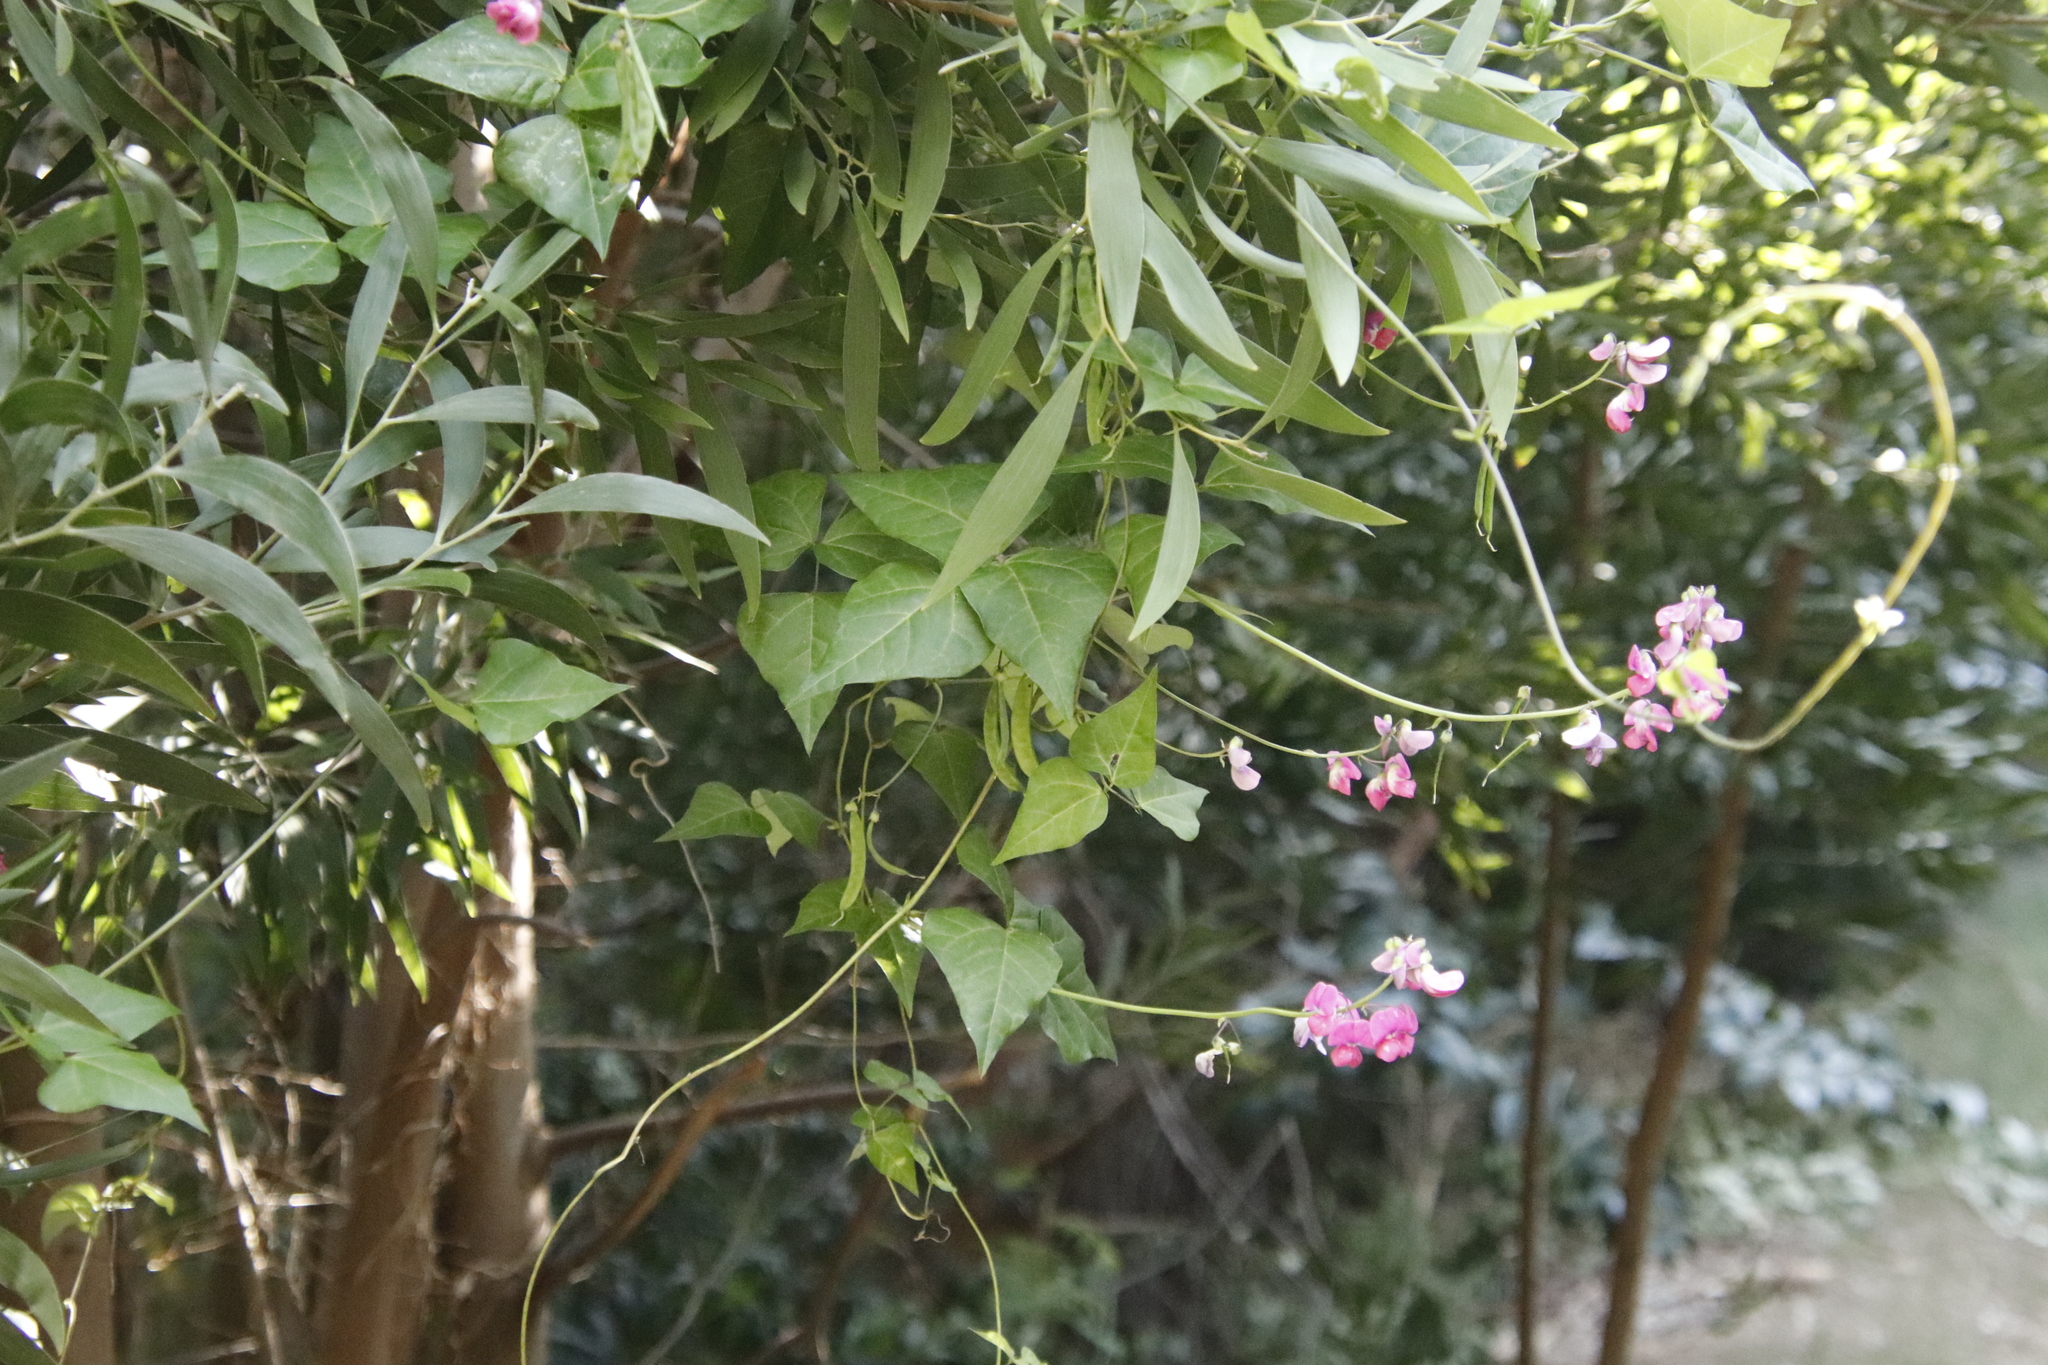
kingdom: Plantae
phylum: Tracheophyta
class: Magnoliopsida
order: Fabales
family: Fabaceae
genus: Dipogon
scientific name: Dipogon lignosus
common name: Okie bean
